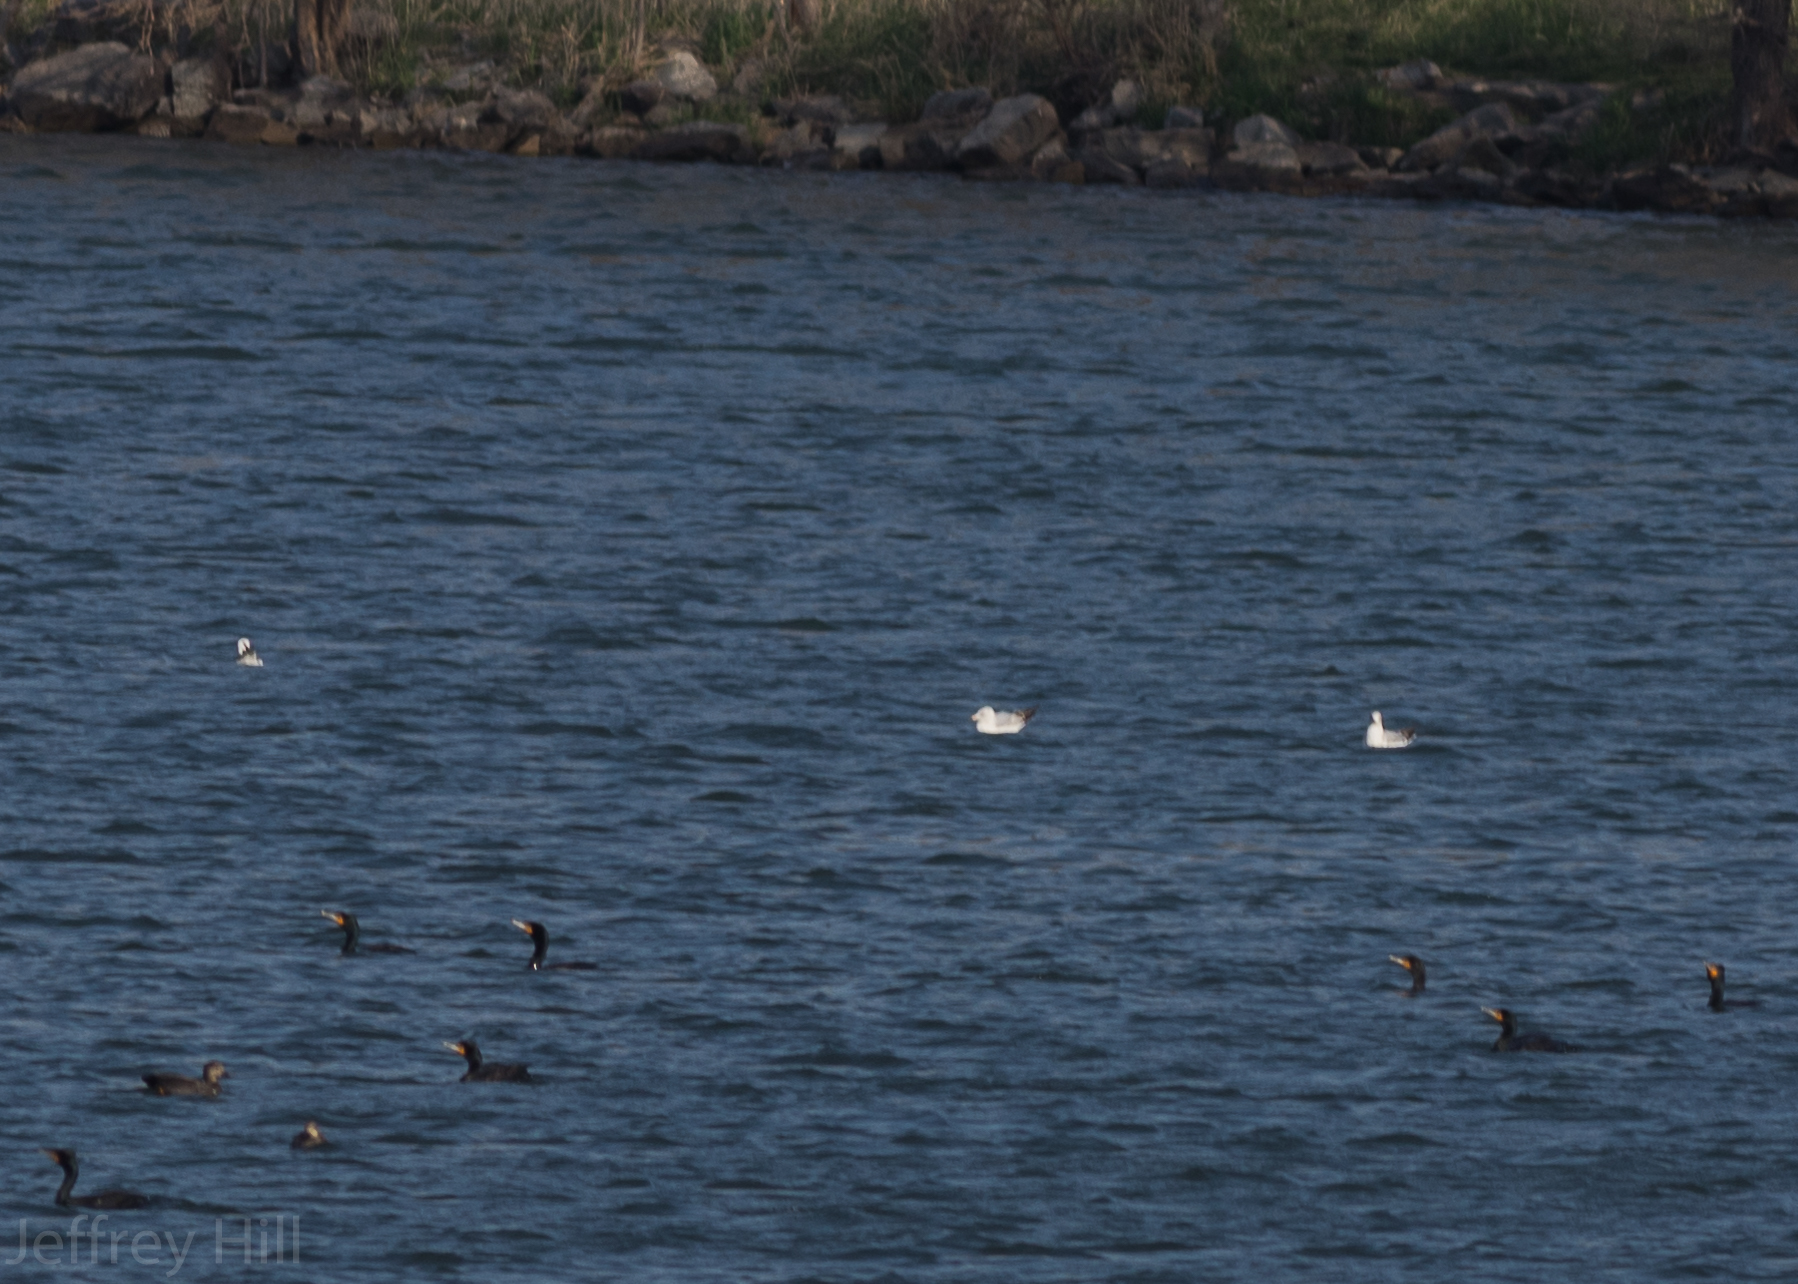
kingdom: Animalia
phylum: Chordata
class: Aves
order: Suliformes
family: Phalacrocoracidae
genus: Phalacrocorax
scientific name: Phalacrocorax auritus
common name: Double-crested cormorant
